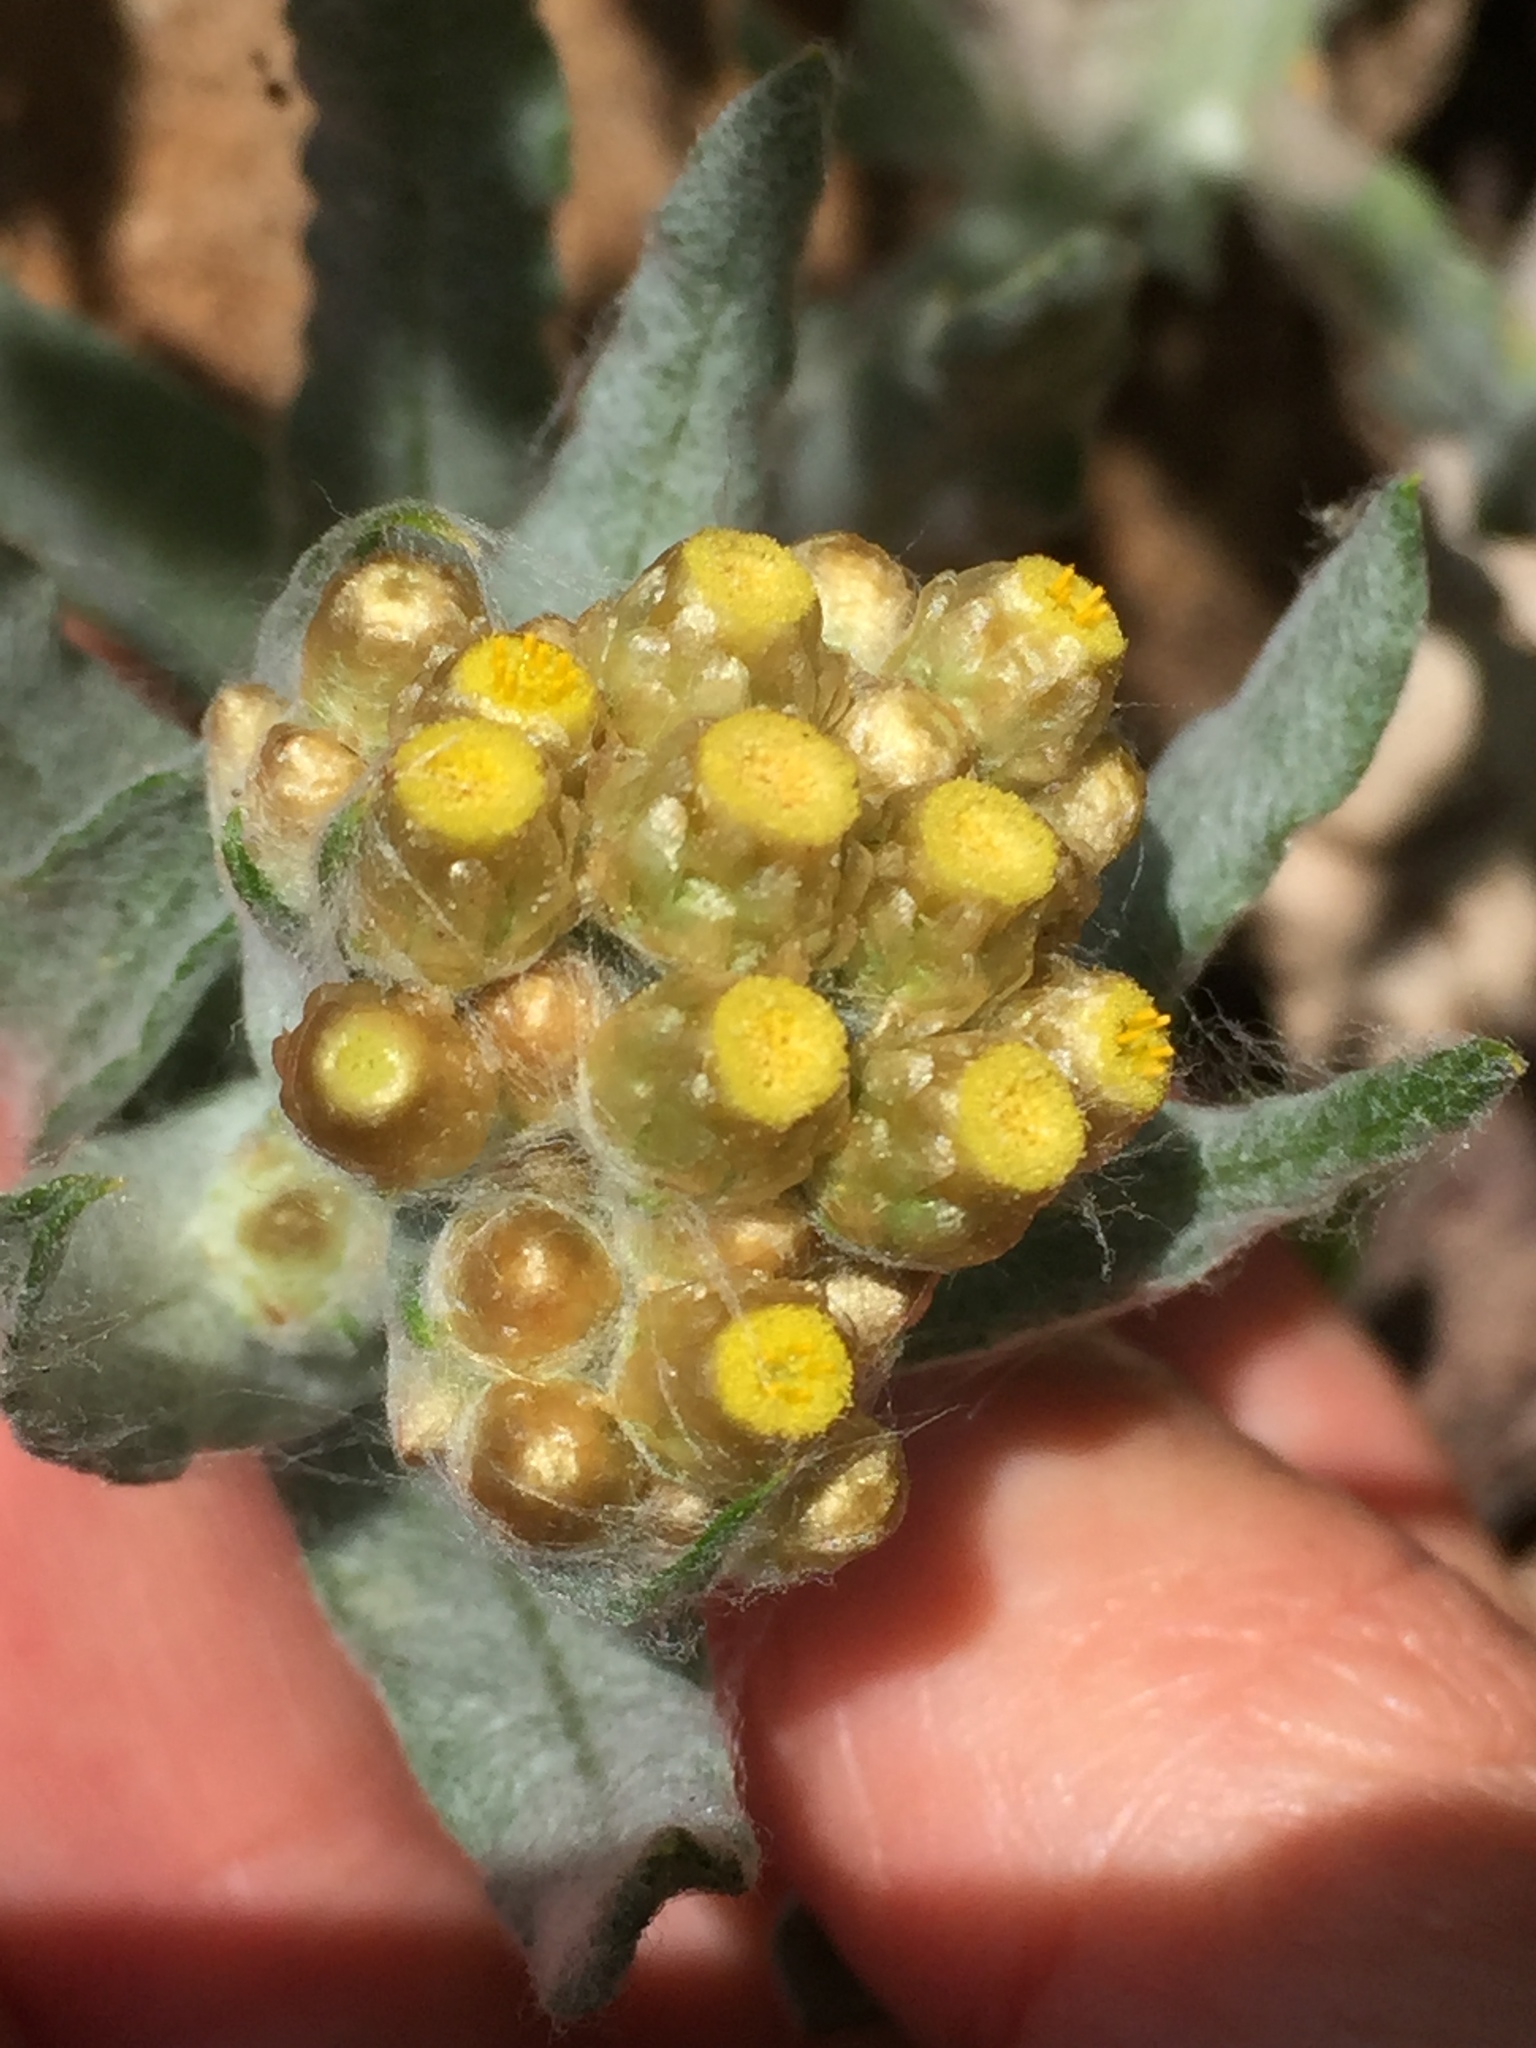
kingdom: Plantae
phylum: Tracheophyta
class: Magnoliopsida
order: Asterales
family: Asteraceae
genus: Pseudognaphalium
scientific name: Pseudognaphalium stramineum
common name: Cotton-batting-plant
